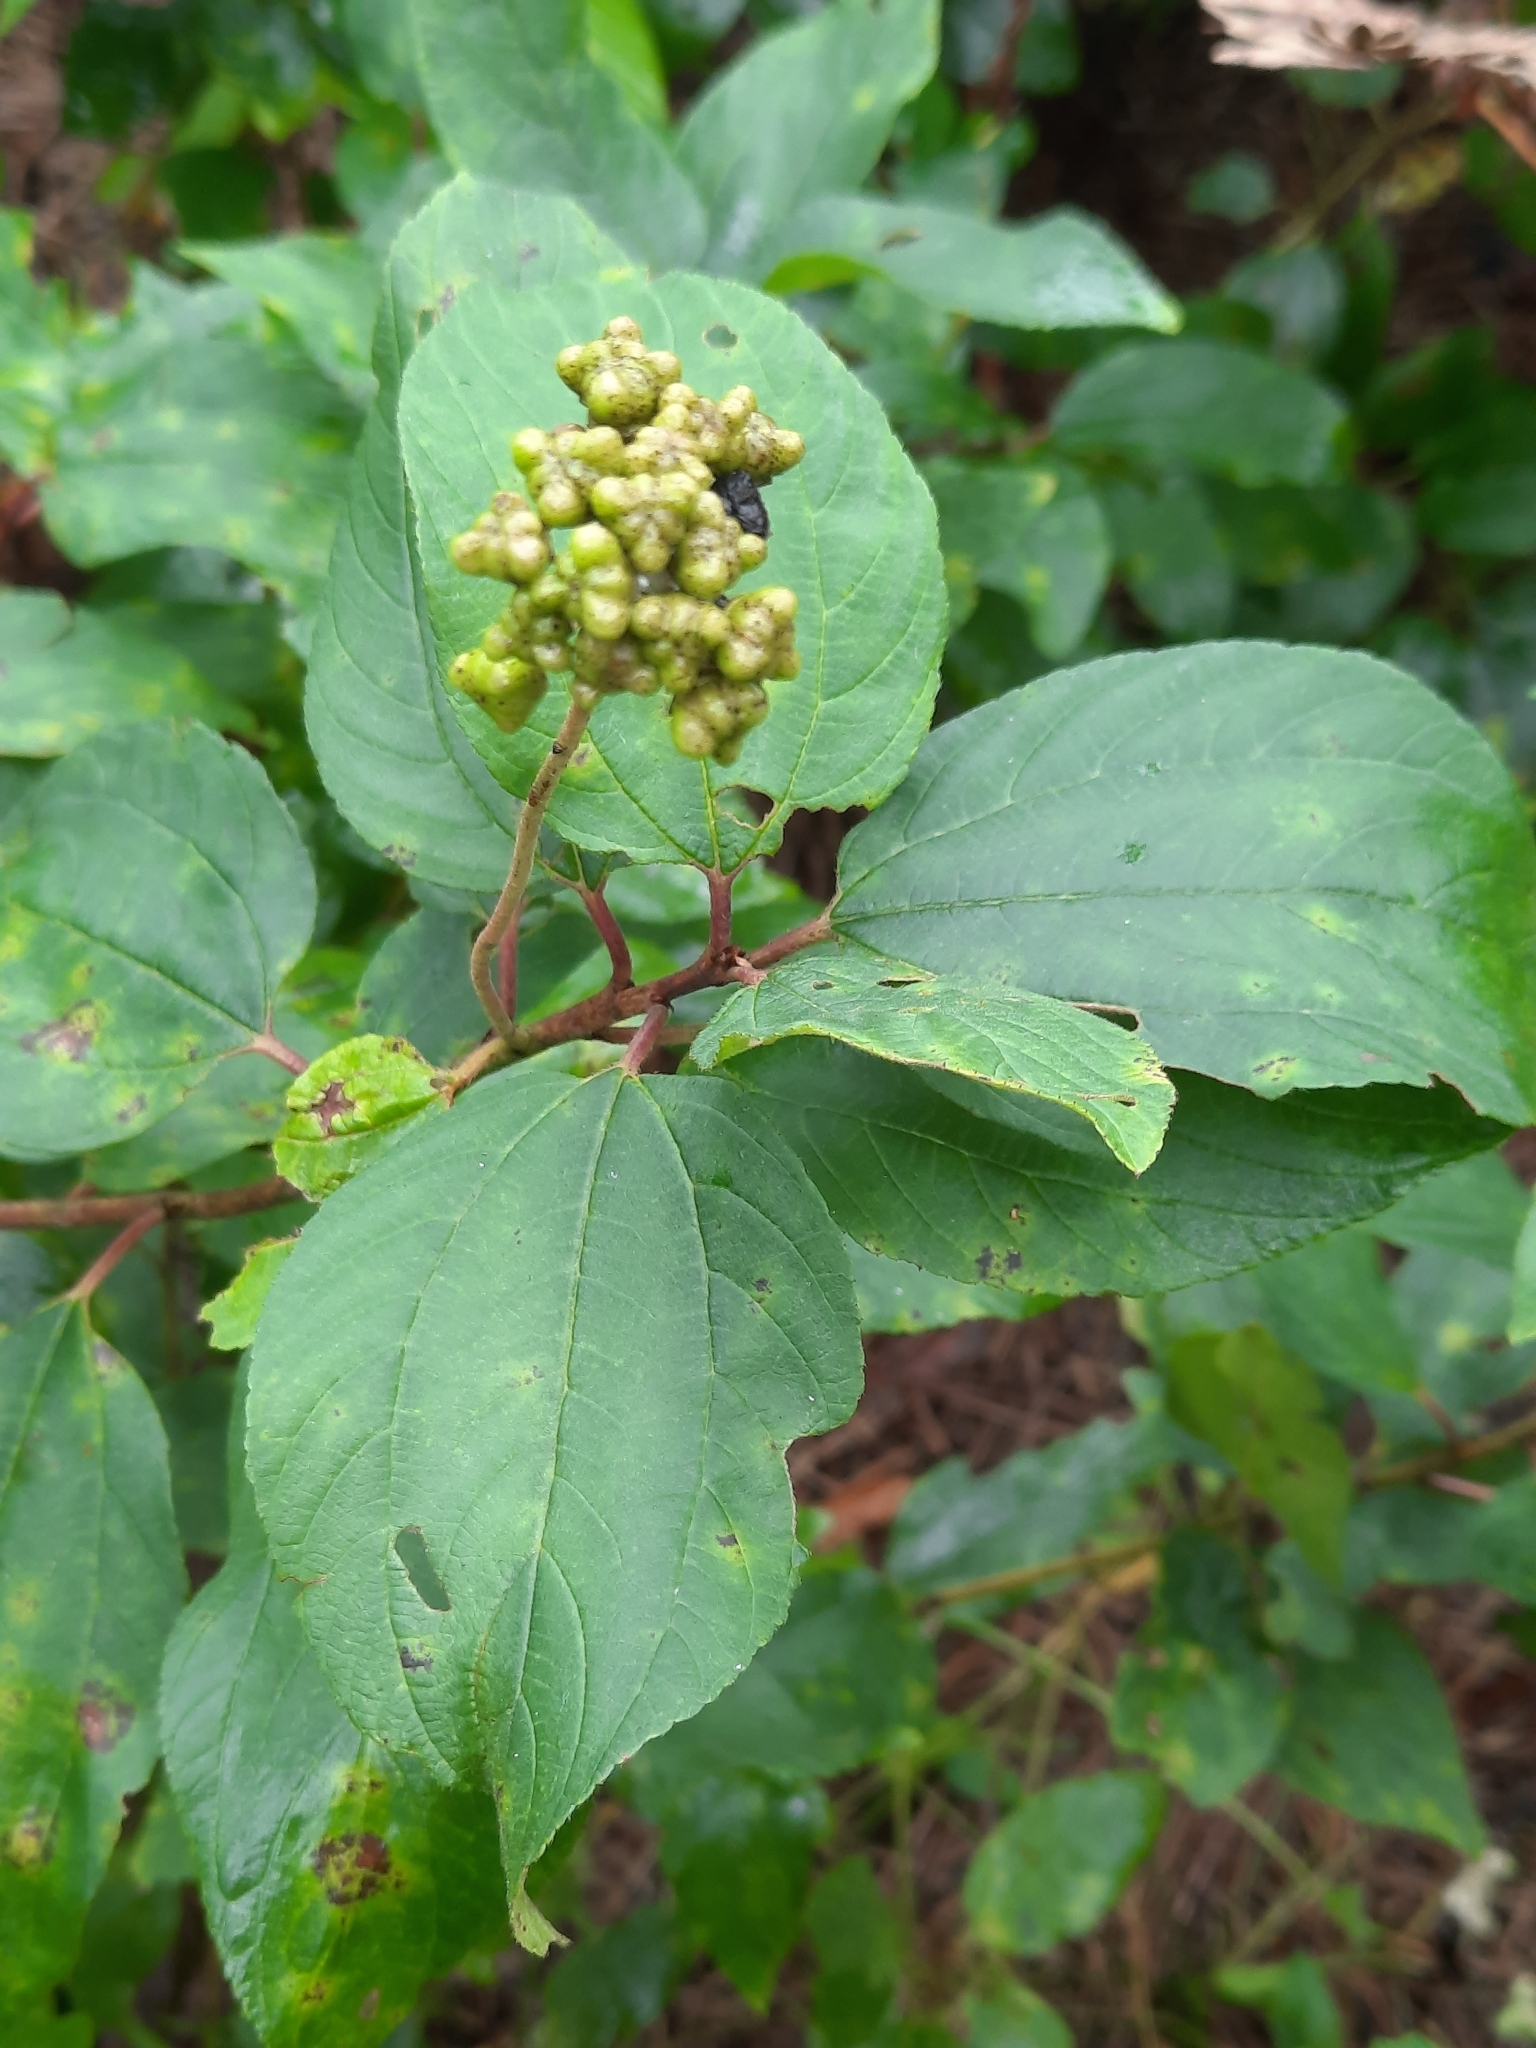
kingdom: Plantae
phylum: Tracheophyta
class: Magnoliopsida
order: Rosales
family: Rhamnaceae
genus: Ceanothus
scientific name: Ceanothus americanus
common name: Redroot
